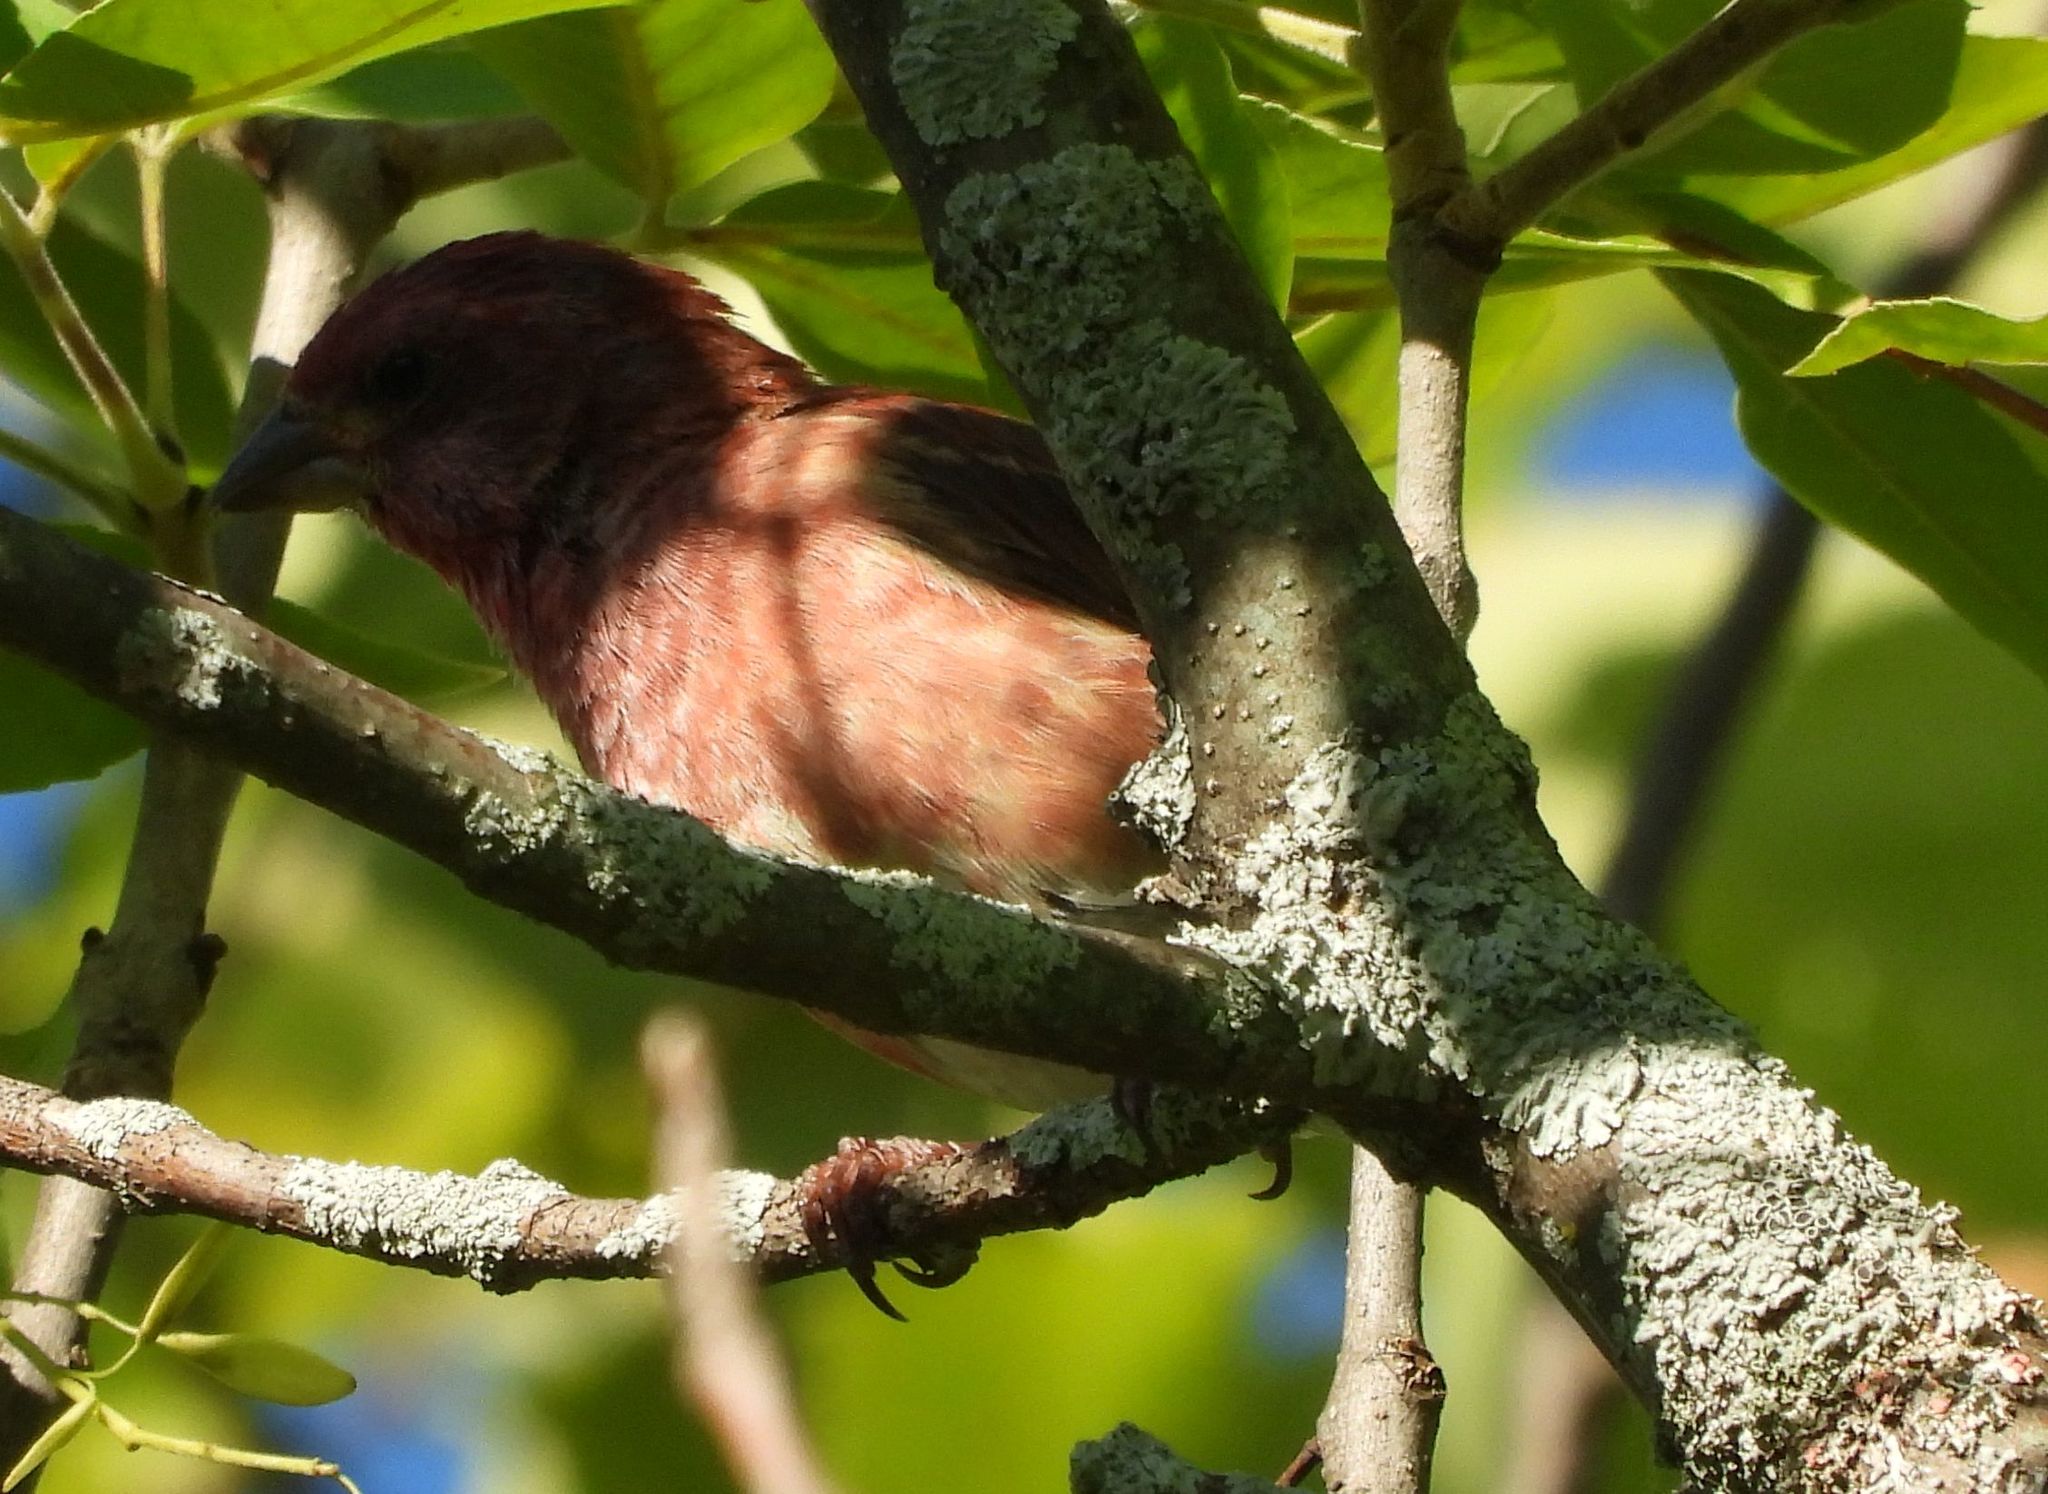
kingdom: Animalia
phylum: Chordata
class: Aves
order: Passeriformes
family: Fringillidae
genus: Haemorhous
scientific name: Haemorhous purpureus
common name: Purple finch
